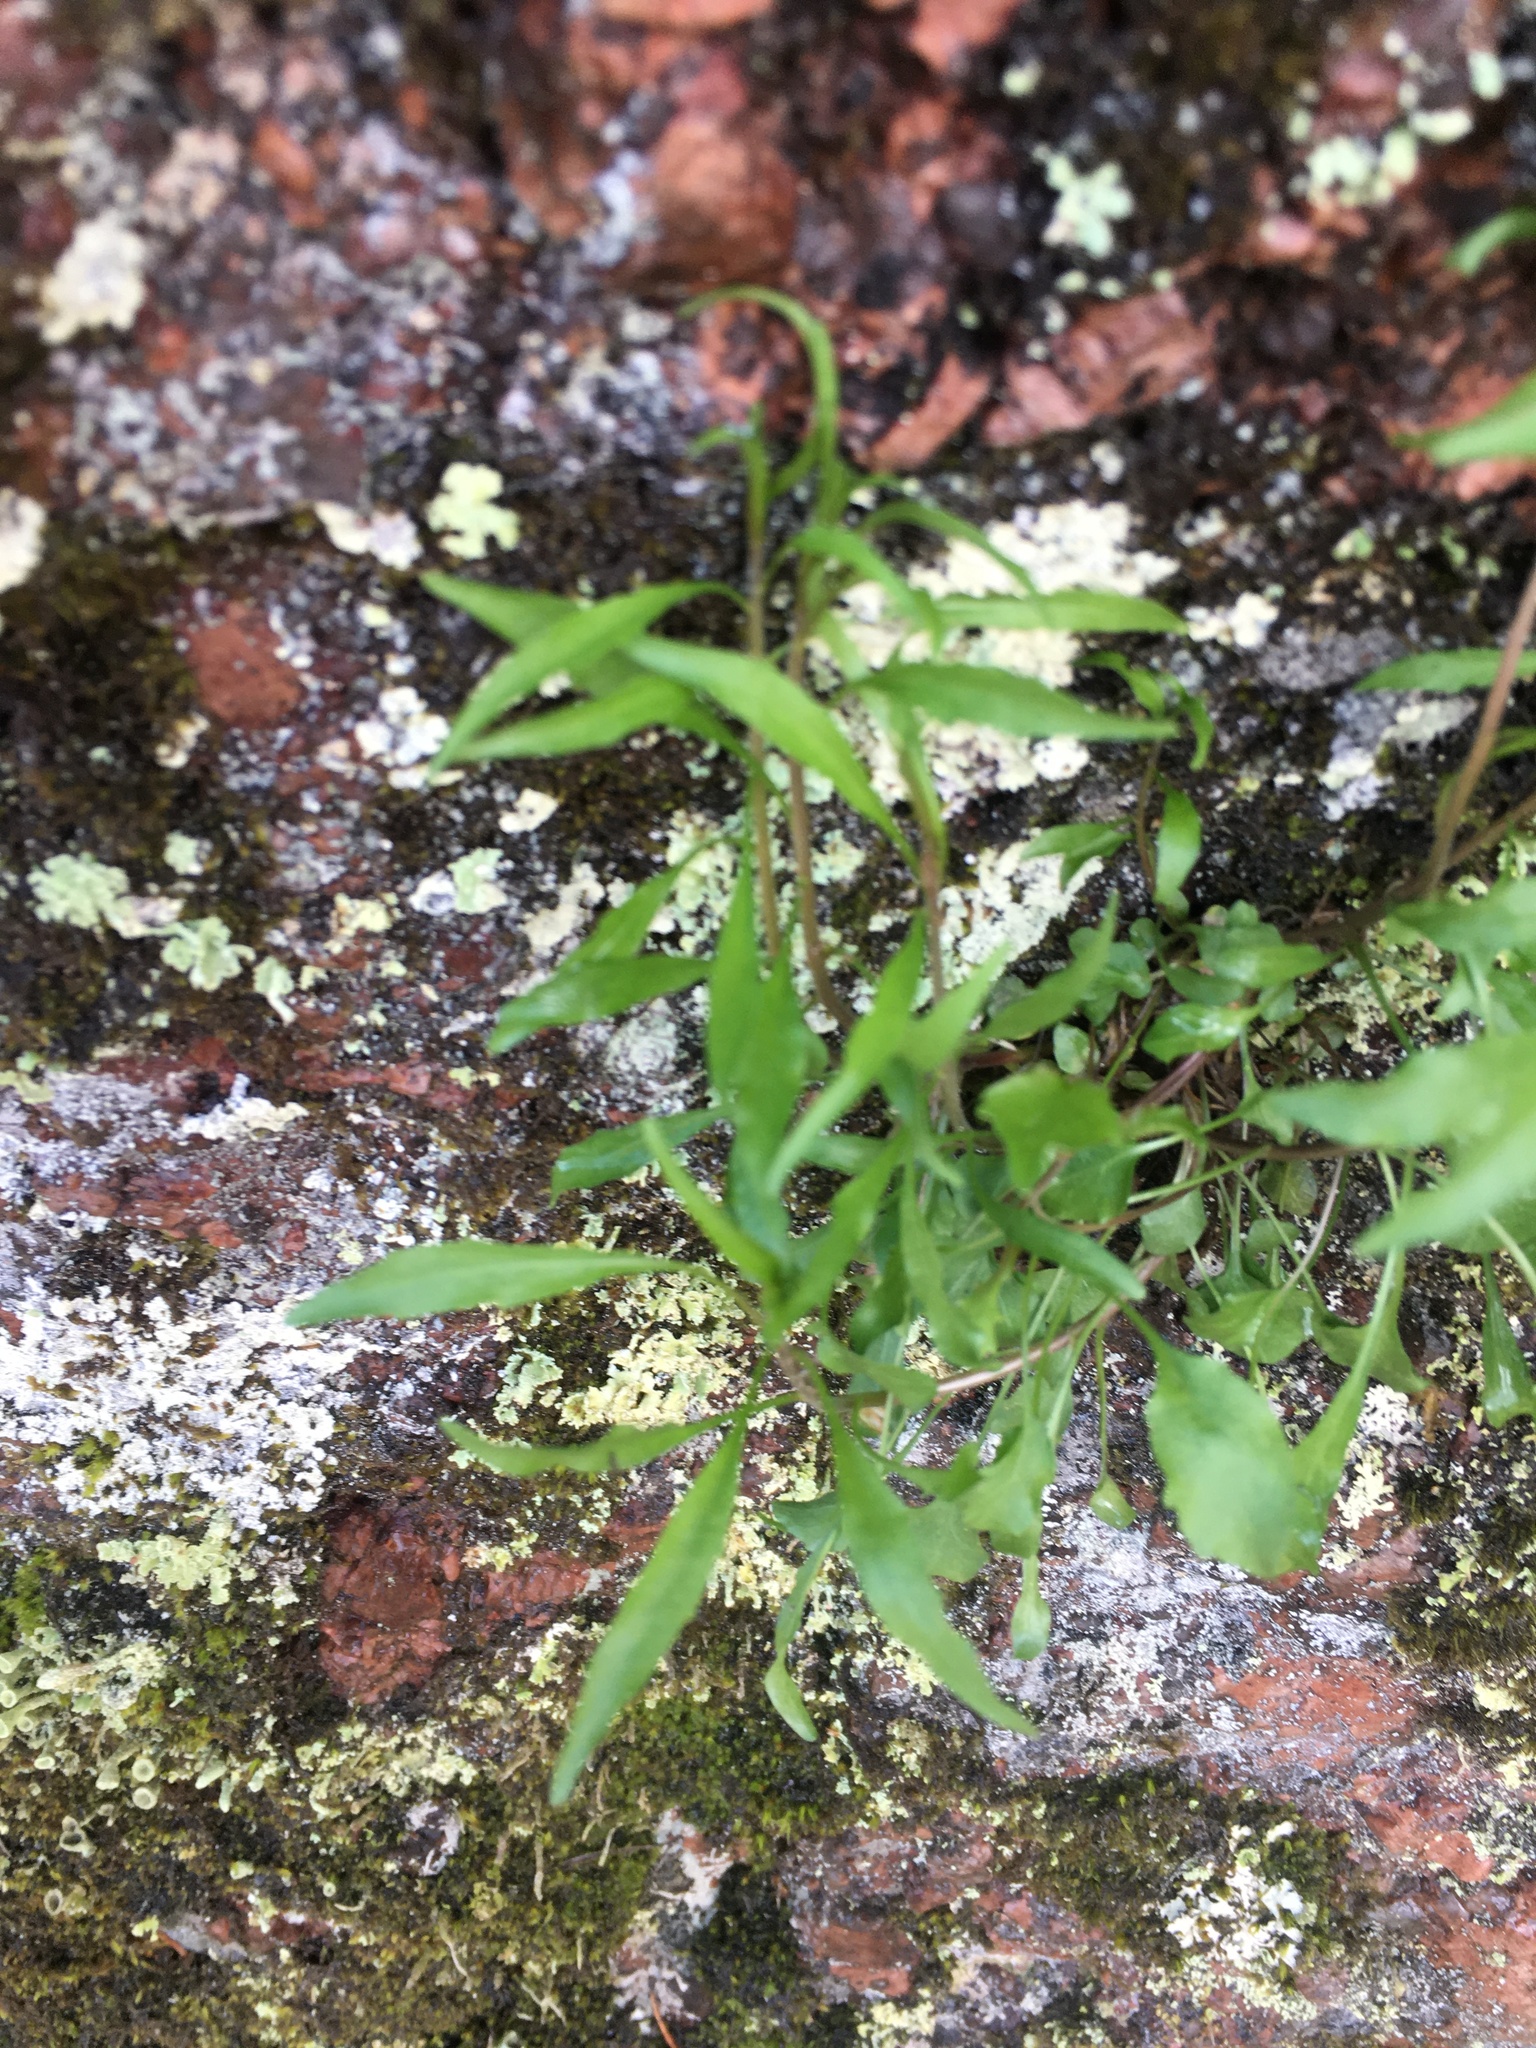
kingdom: Plantae
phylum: Tracheophyta
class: Magnoliopsida
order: Asterales
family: Campanulaceae
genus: Campanula
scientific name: Campanula rotundifolia
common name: Harebell
